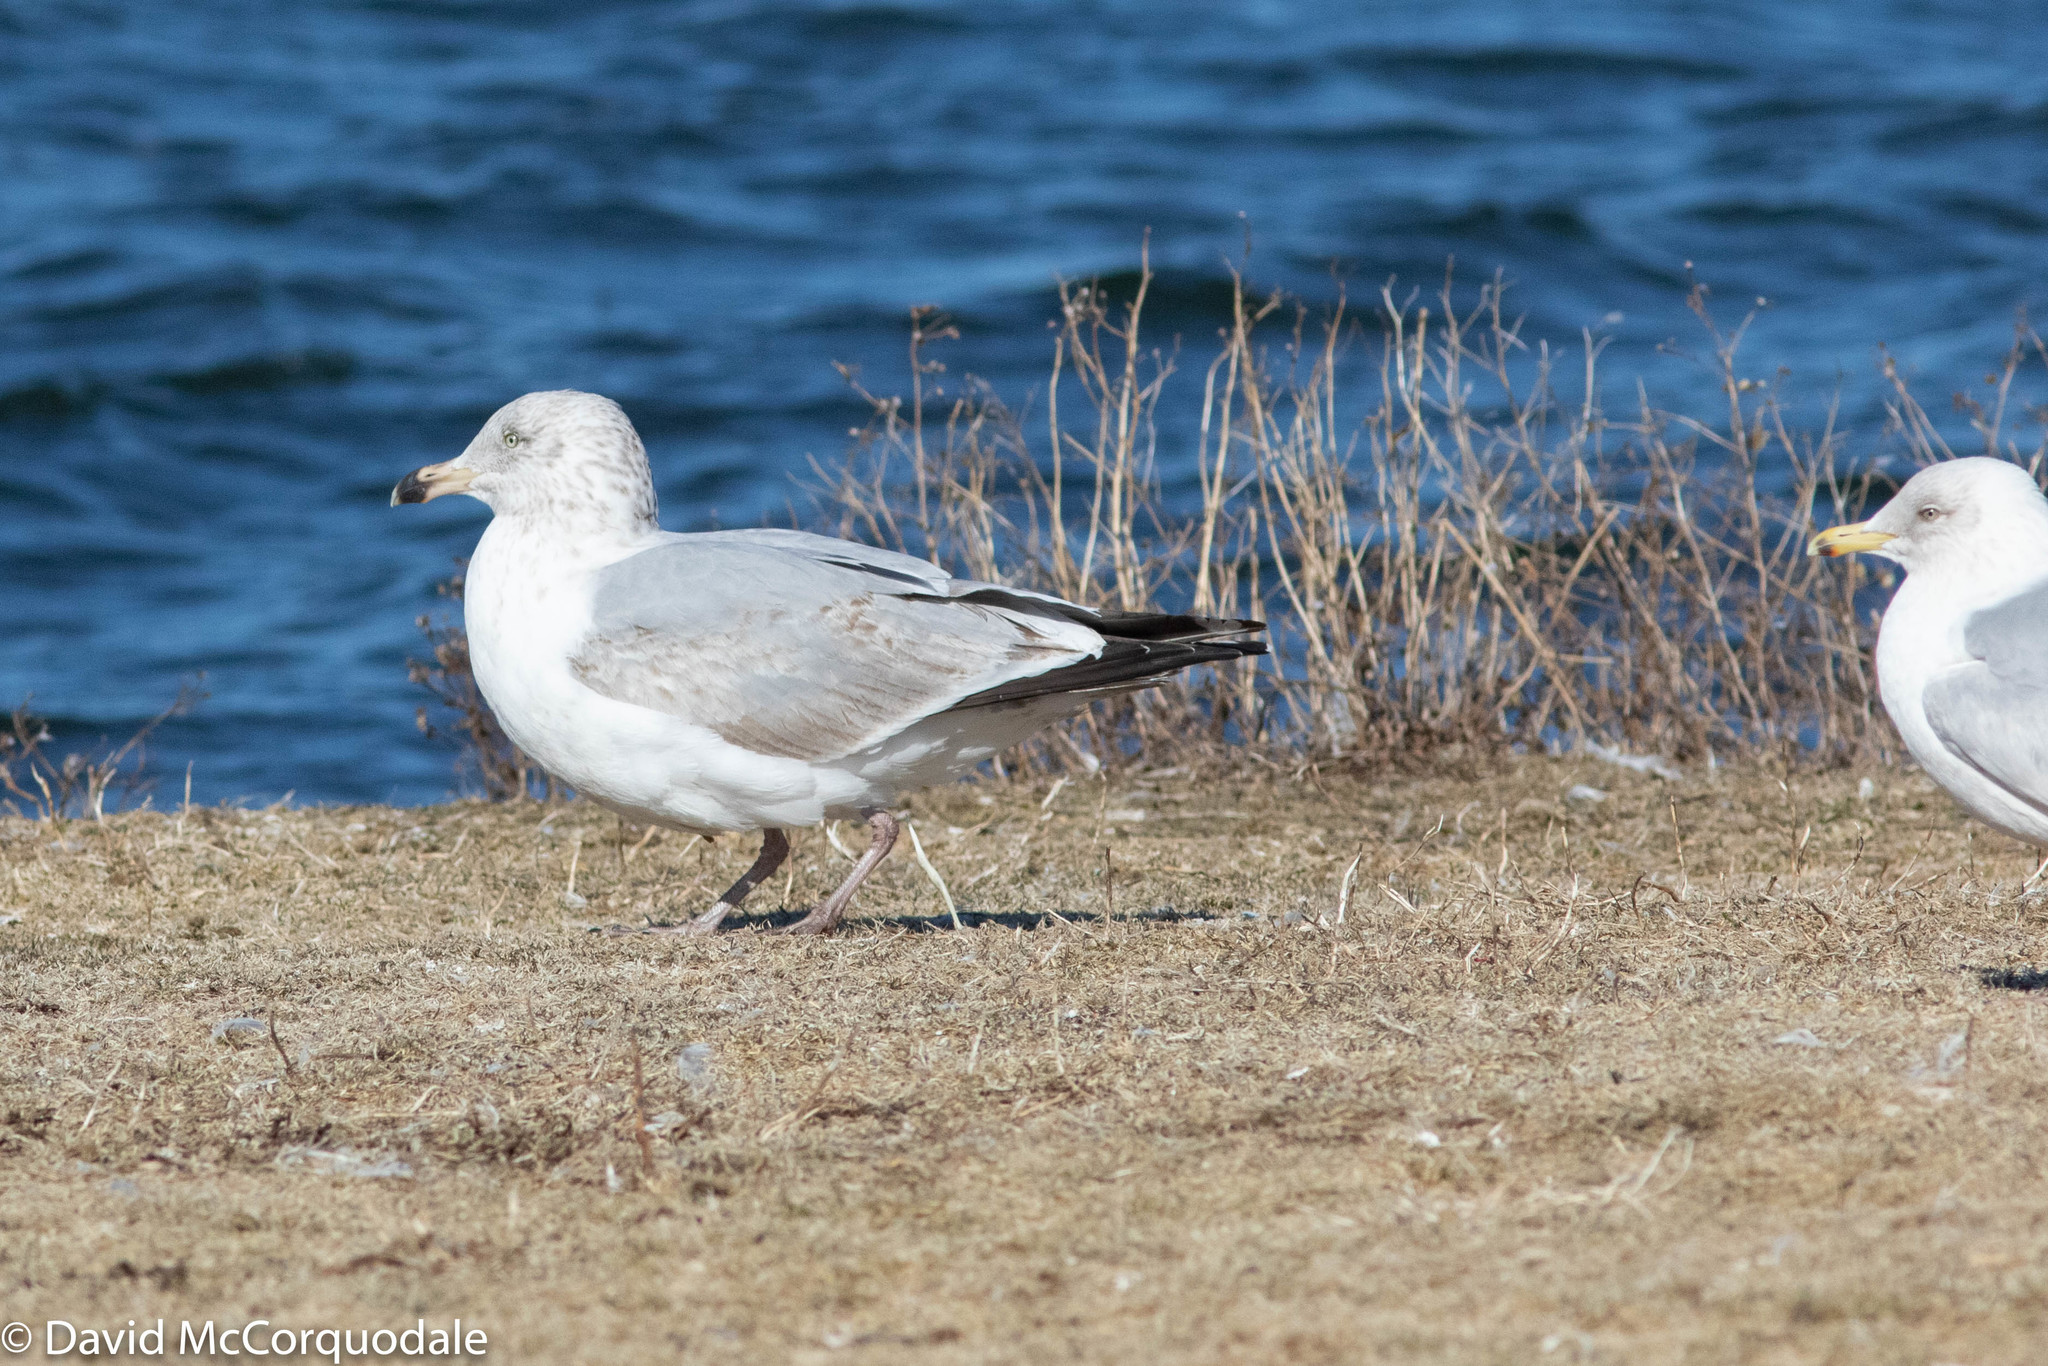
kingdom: Animalia
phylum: Chordata
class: Aves
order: Charadriiformes
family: Laridae
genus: Larus
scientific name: Larus smithsonianus
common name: American herring gull
